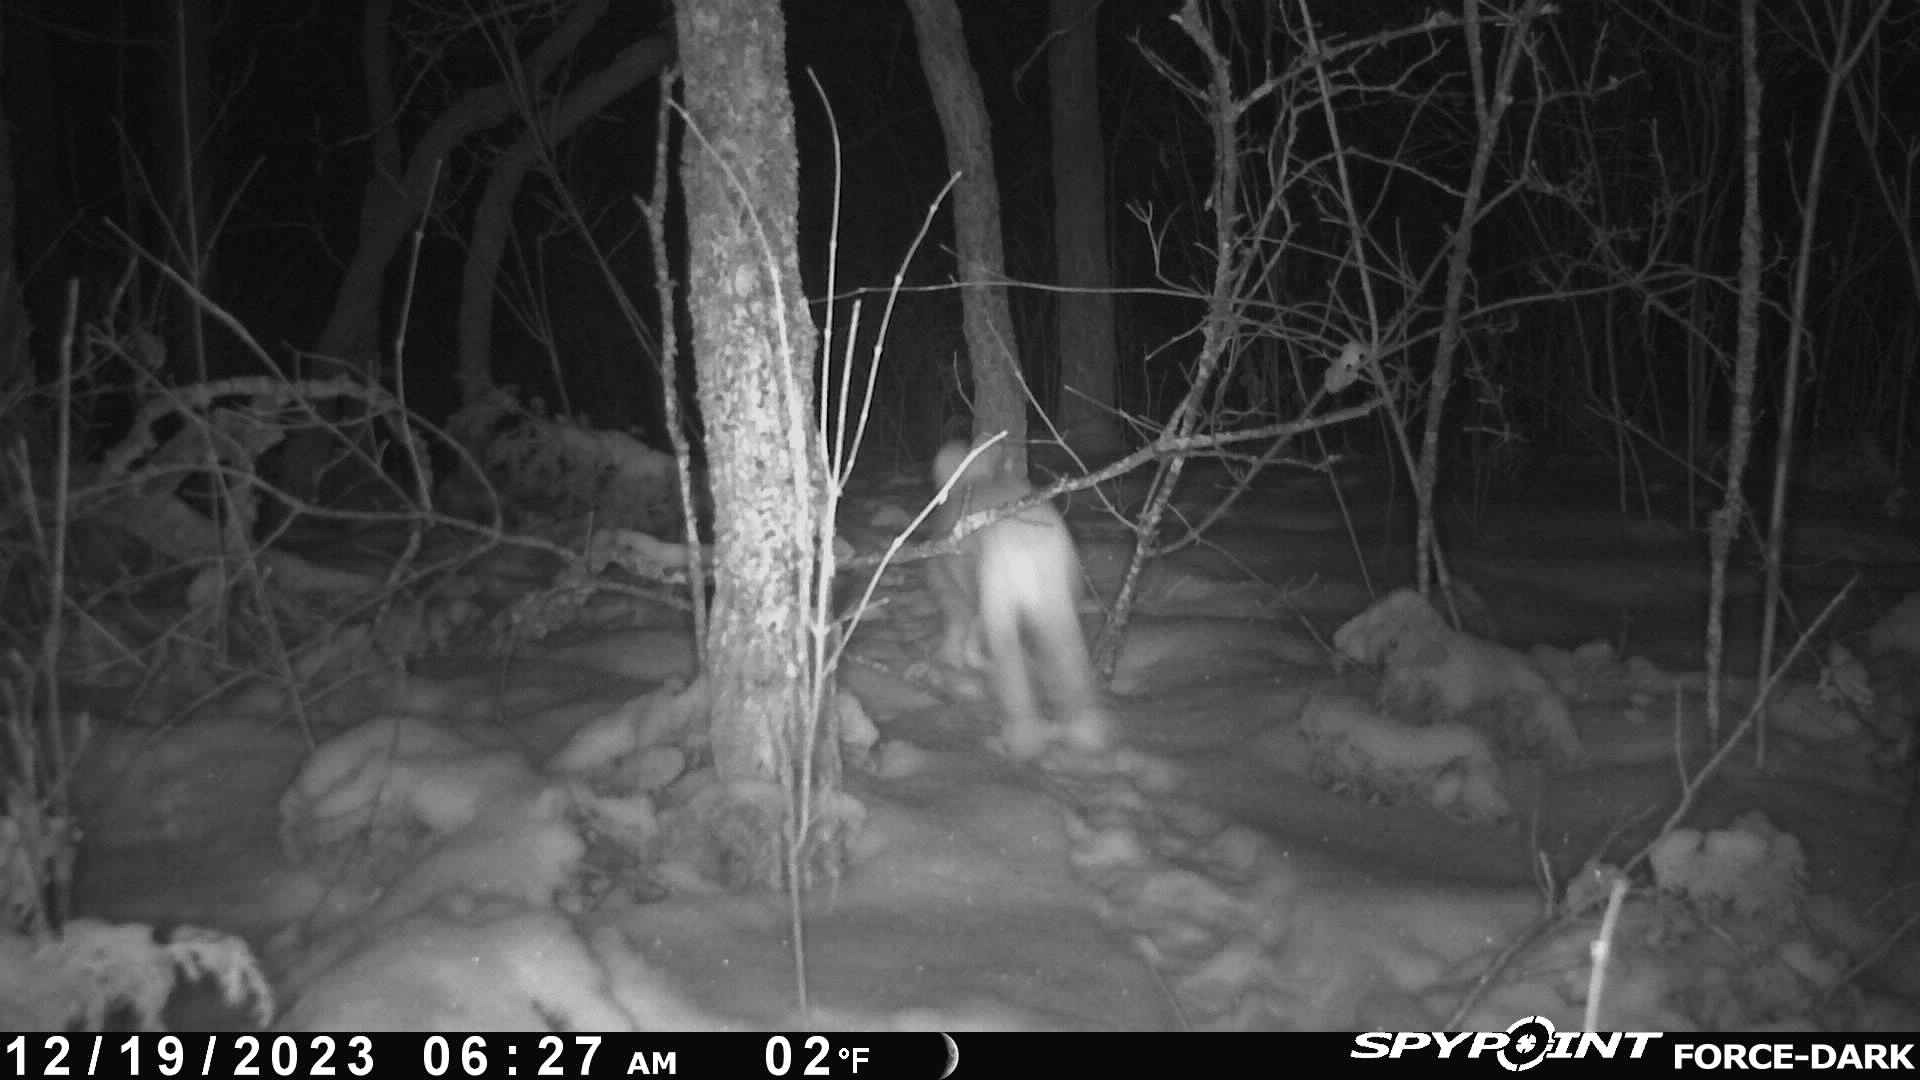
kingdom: Animalia
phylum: Chordata
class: Mammalia
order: Lagomorpha
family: Leporidae
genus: Lepus
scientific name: Lepus americanus
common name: Snowshoe hare
